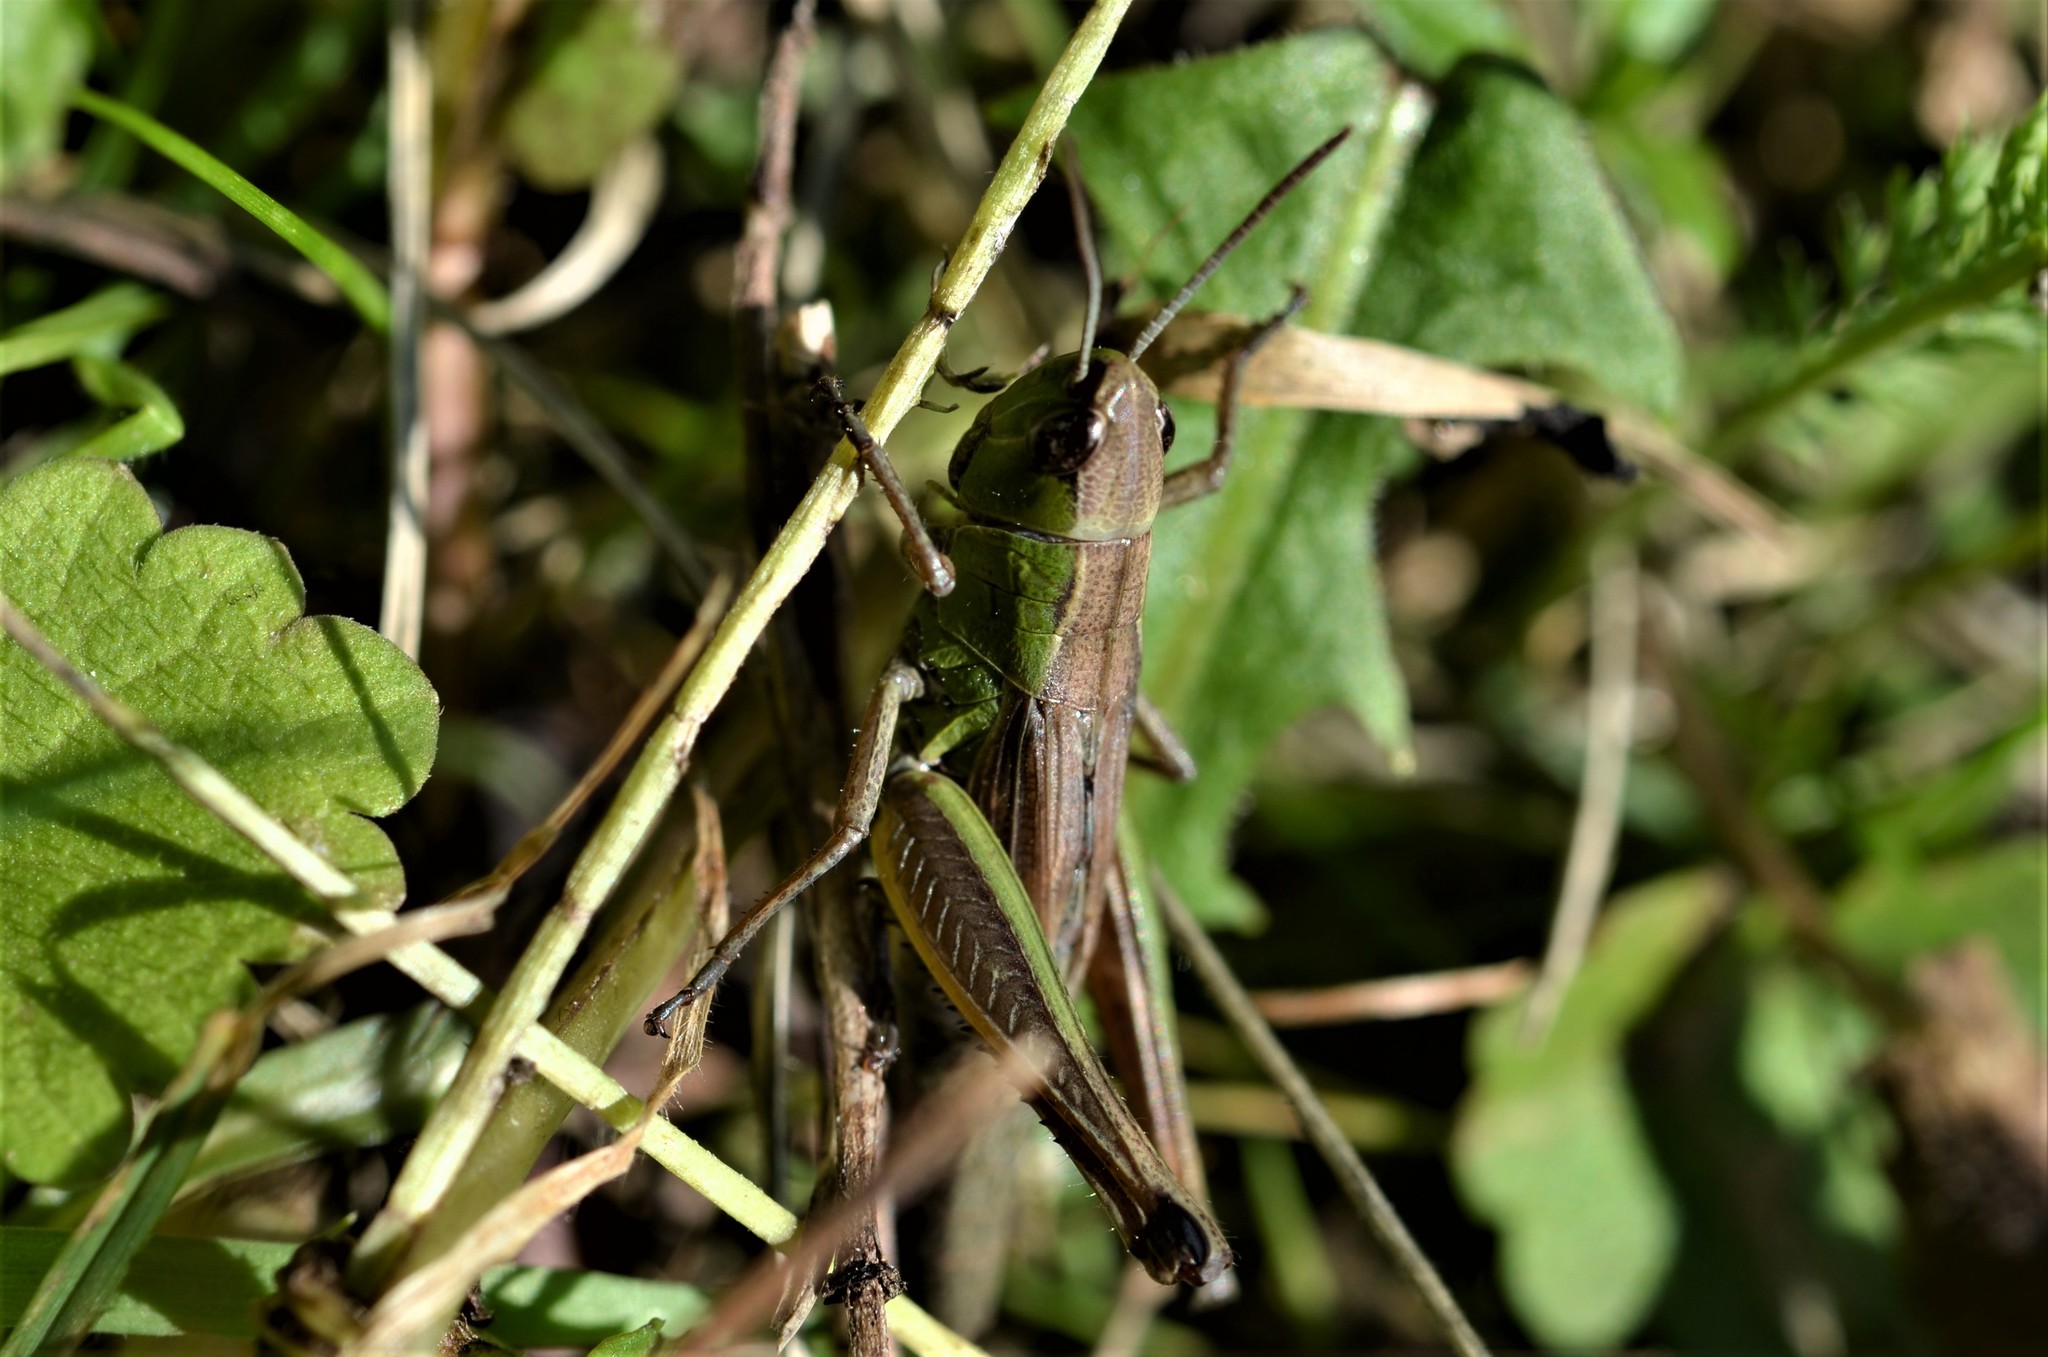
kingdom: Animalia
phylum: Arthropoda
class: Insecta
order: Orthoptera
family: Acrididae
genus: Pseudochorthippus
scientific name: Pseudochorthippus parallelus
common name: Meadow grasshopper
